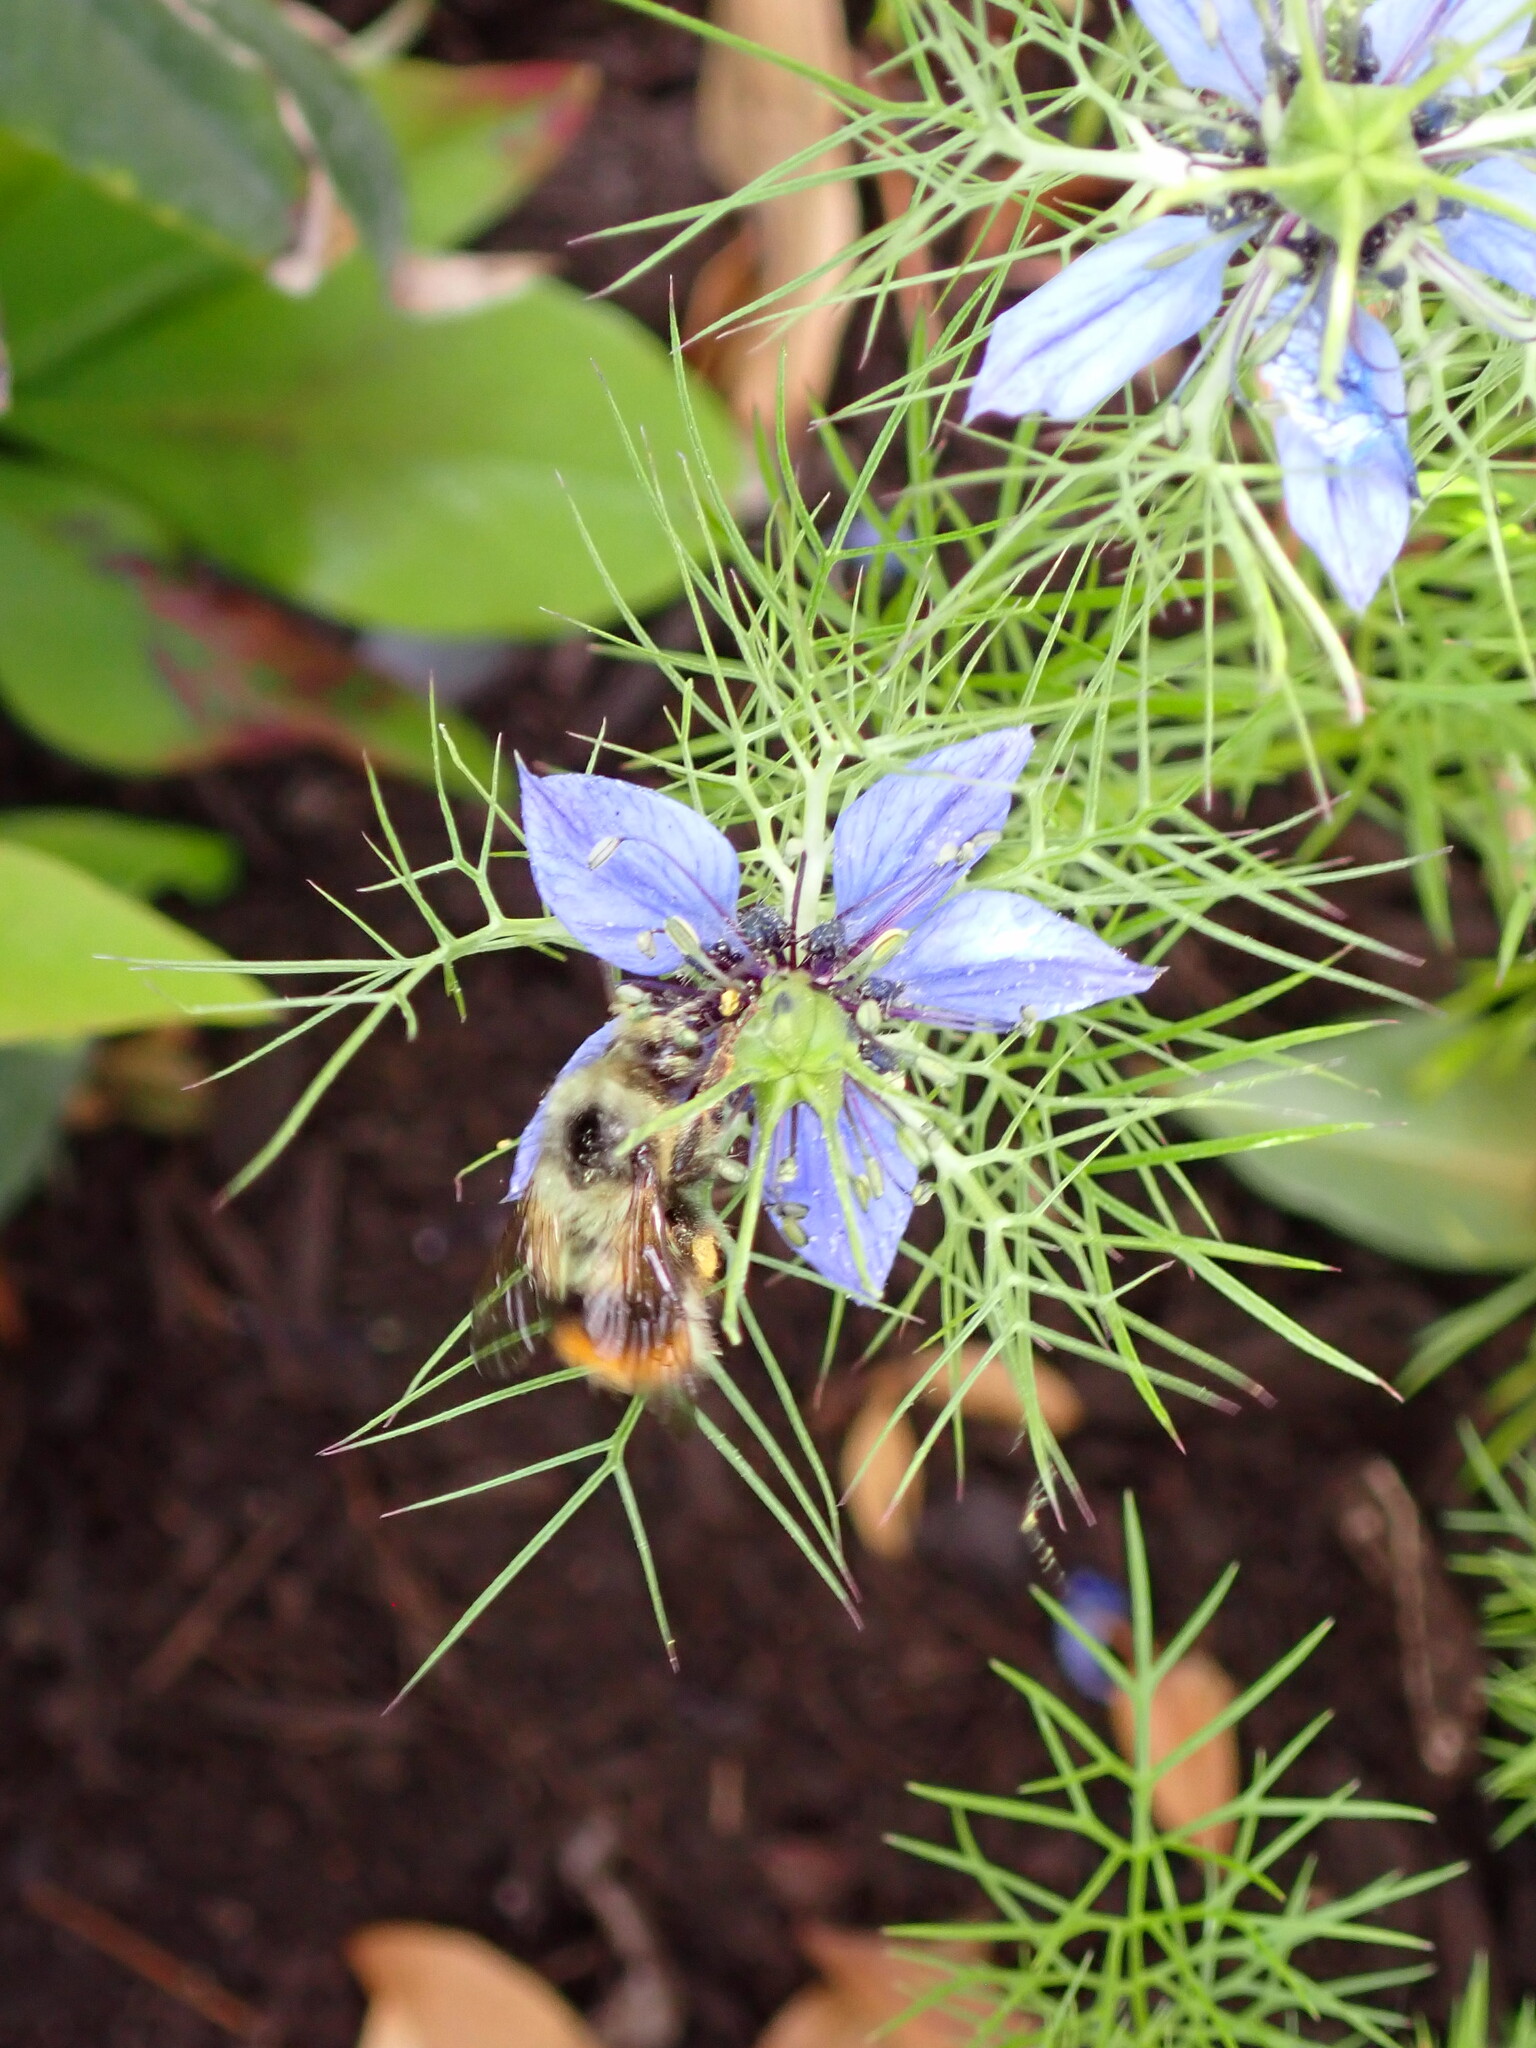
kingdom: Animalia
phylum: Arthropoda
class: Insecta
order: Hymenoptera
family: Apidae
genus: Bombus
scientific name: Bombus mixtus
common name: Fuzzy-horned bumble bee
